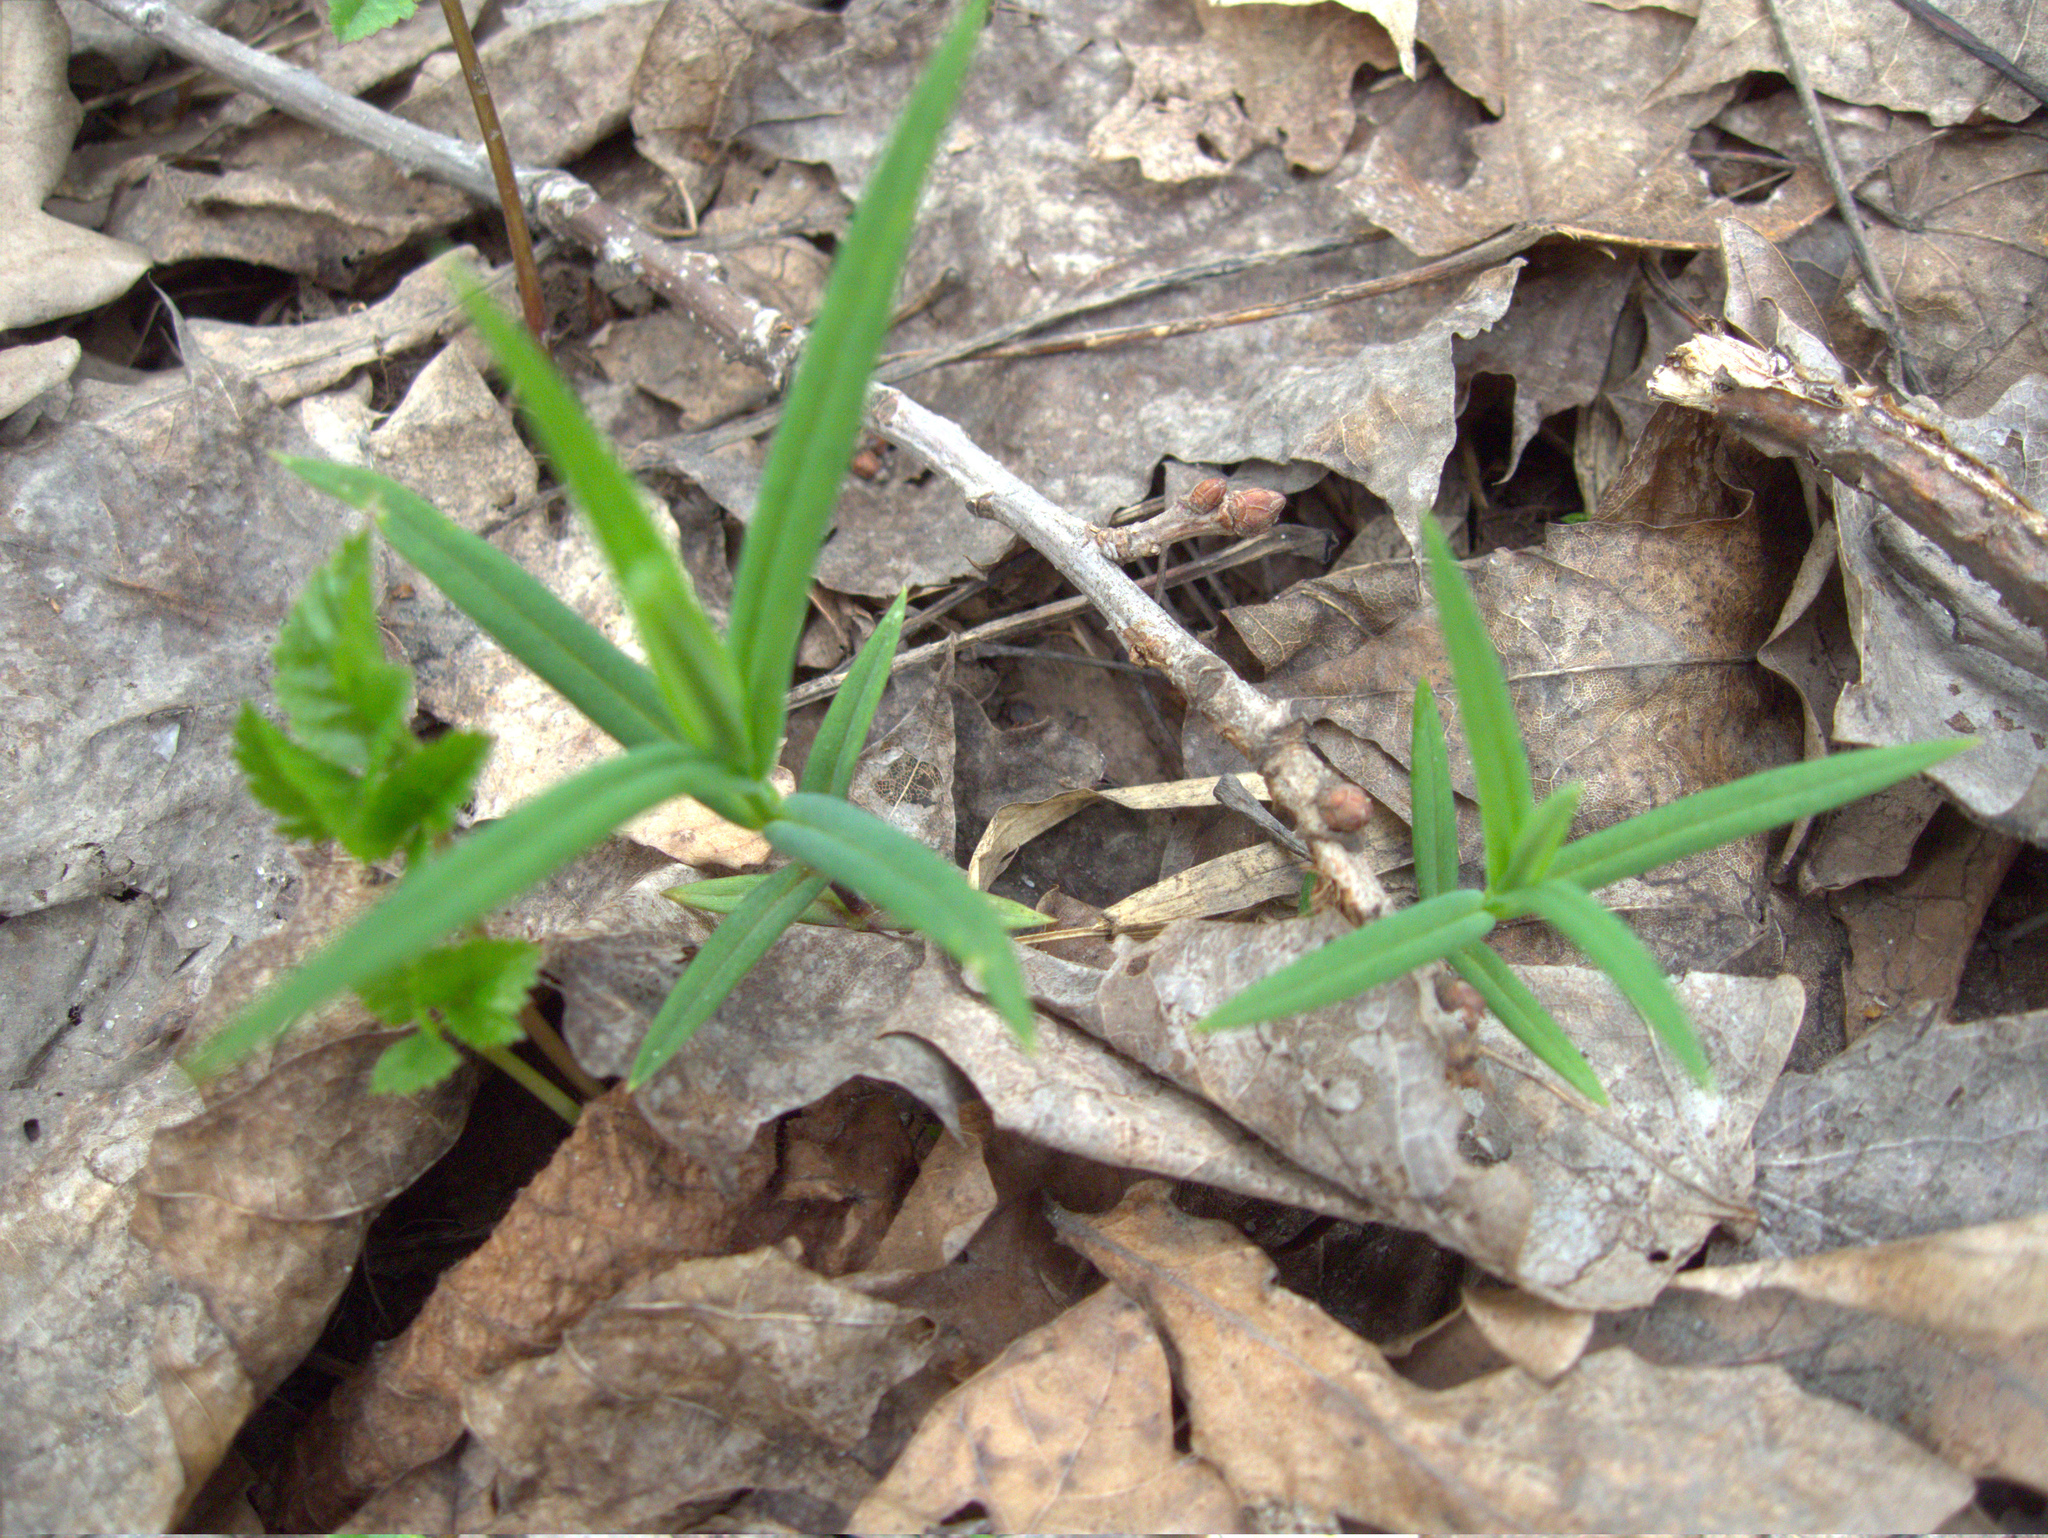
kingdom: Plantae
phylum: Tracheophyta
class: Magnoliopsida
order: Caryophyllales
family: Caryophyllaceae
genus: Rabelera
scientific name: Rabelera holostea
